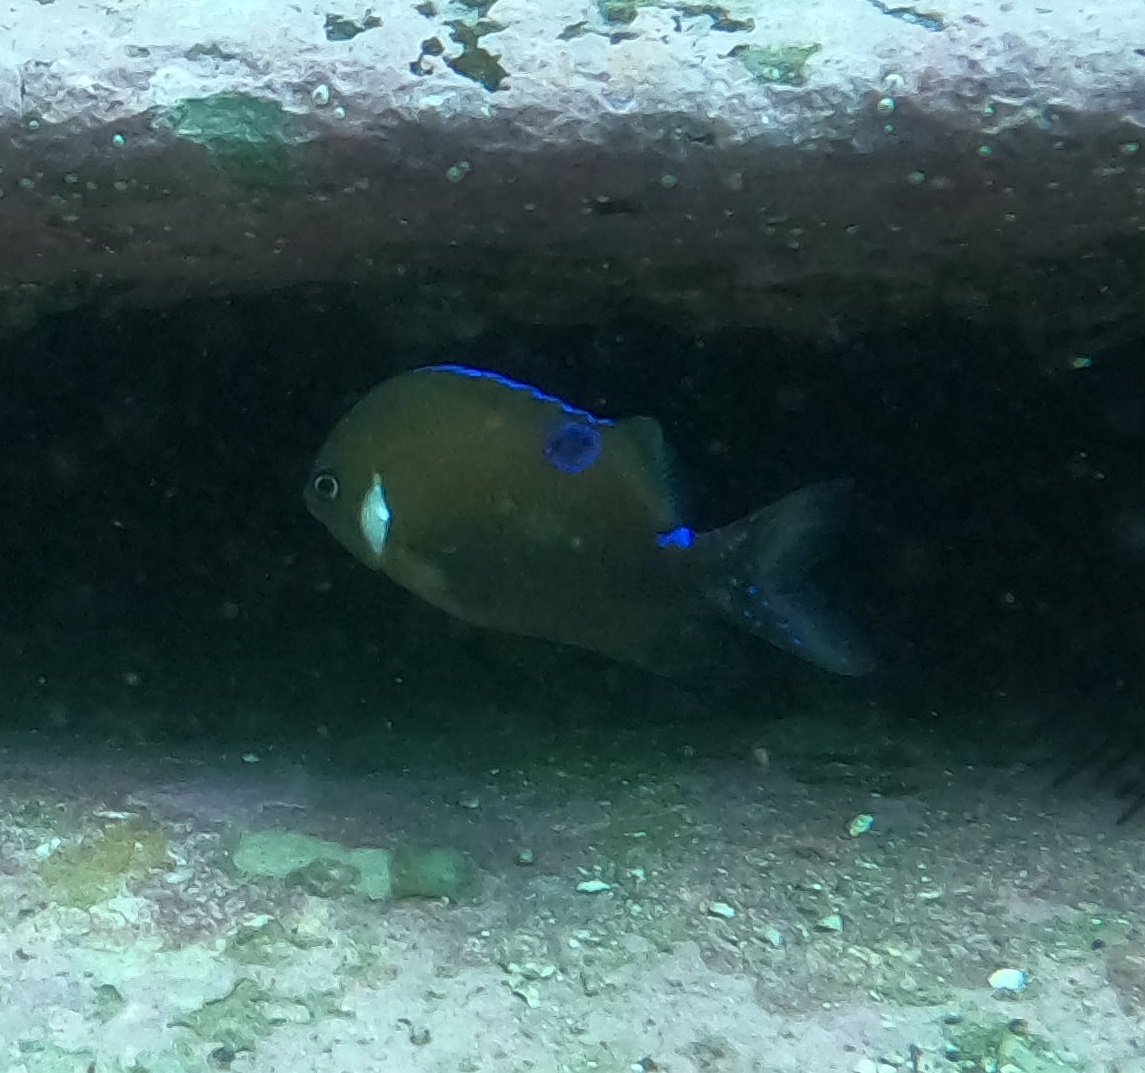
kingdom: Animalia
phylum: Chordata
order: Perciformes
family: Pomacentridae
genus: Parma
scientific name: Parma microlepis
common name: White-ear
